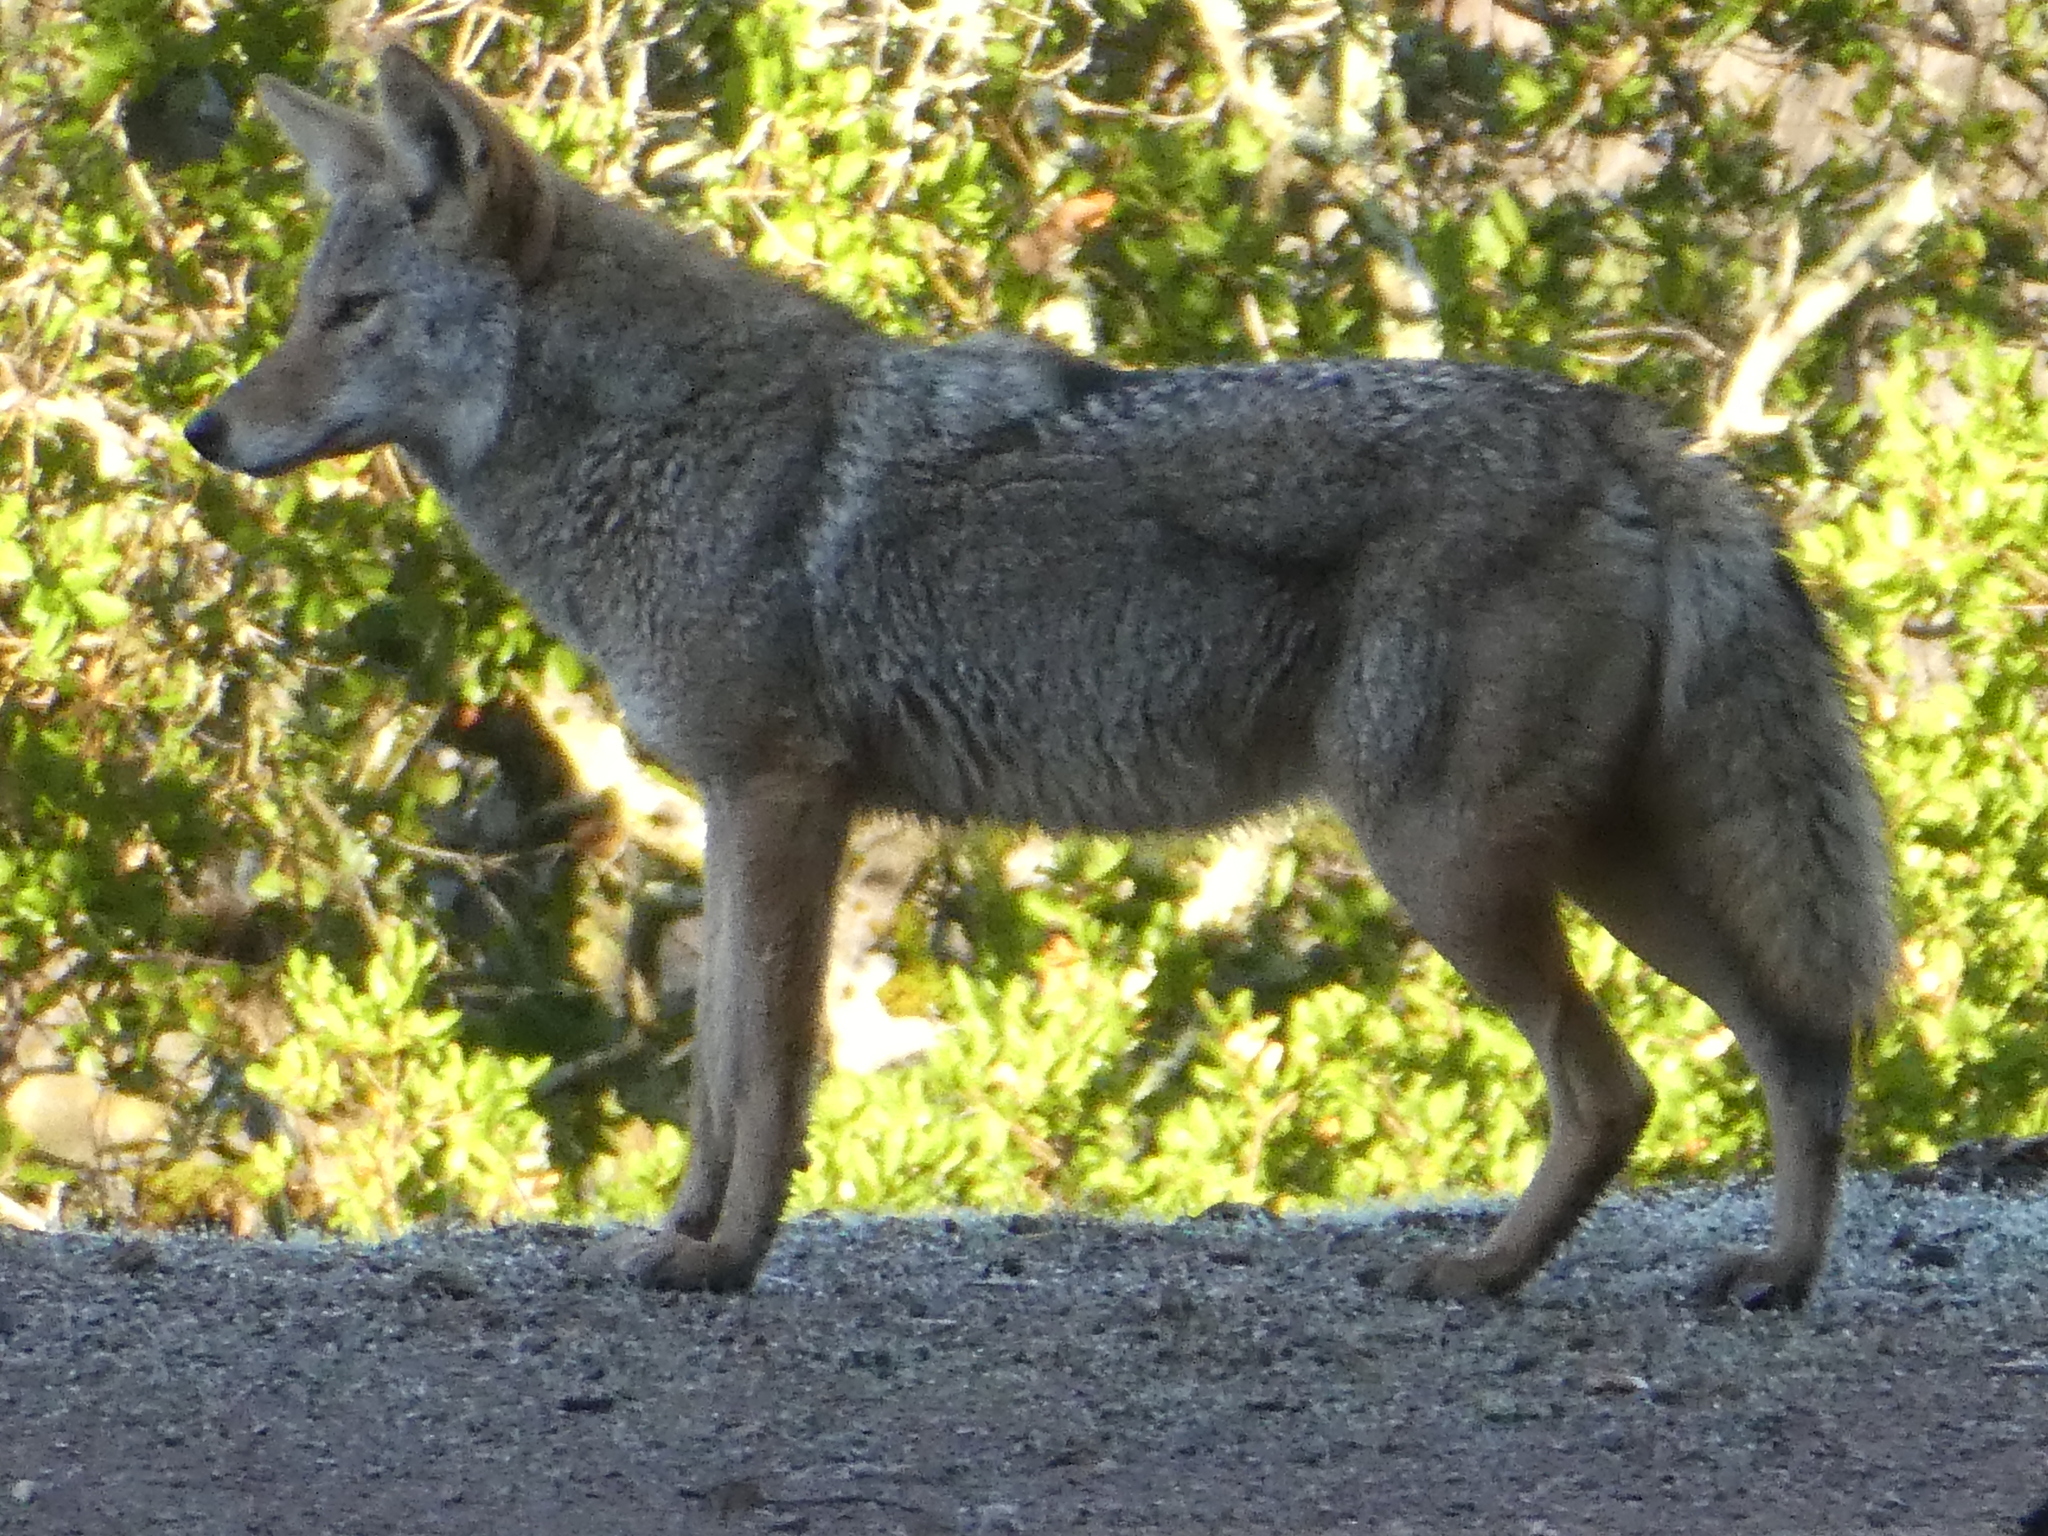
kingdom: Animalia
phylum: Chordata
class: Mammalia
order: Carnivora
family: Canidae
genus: Canis
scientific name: Canis latrans
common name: Coyote
